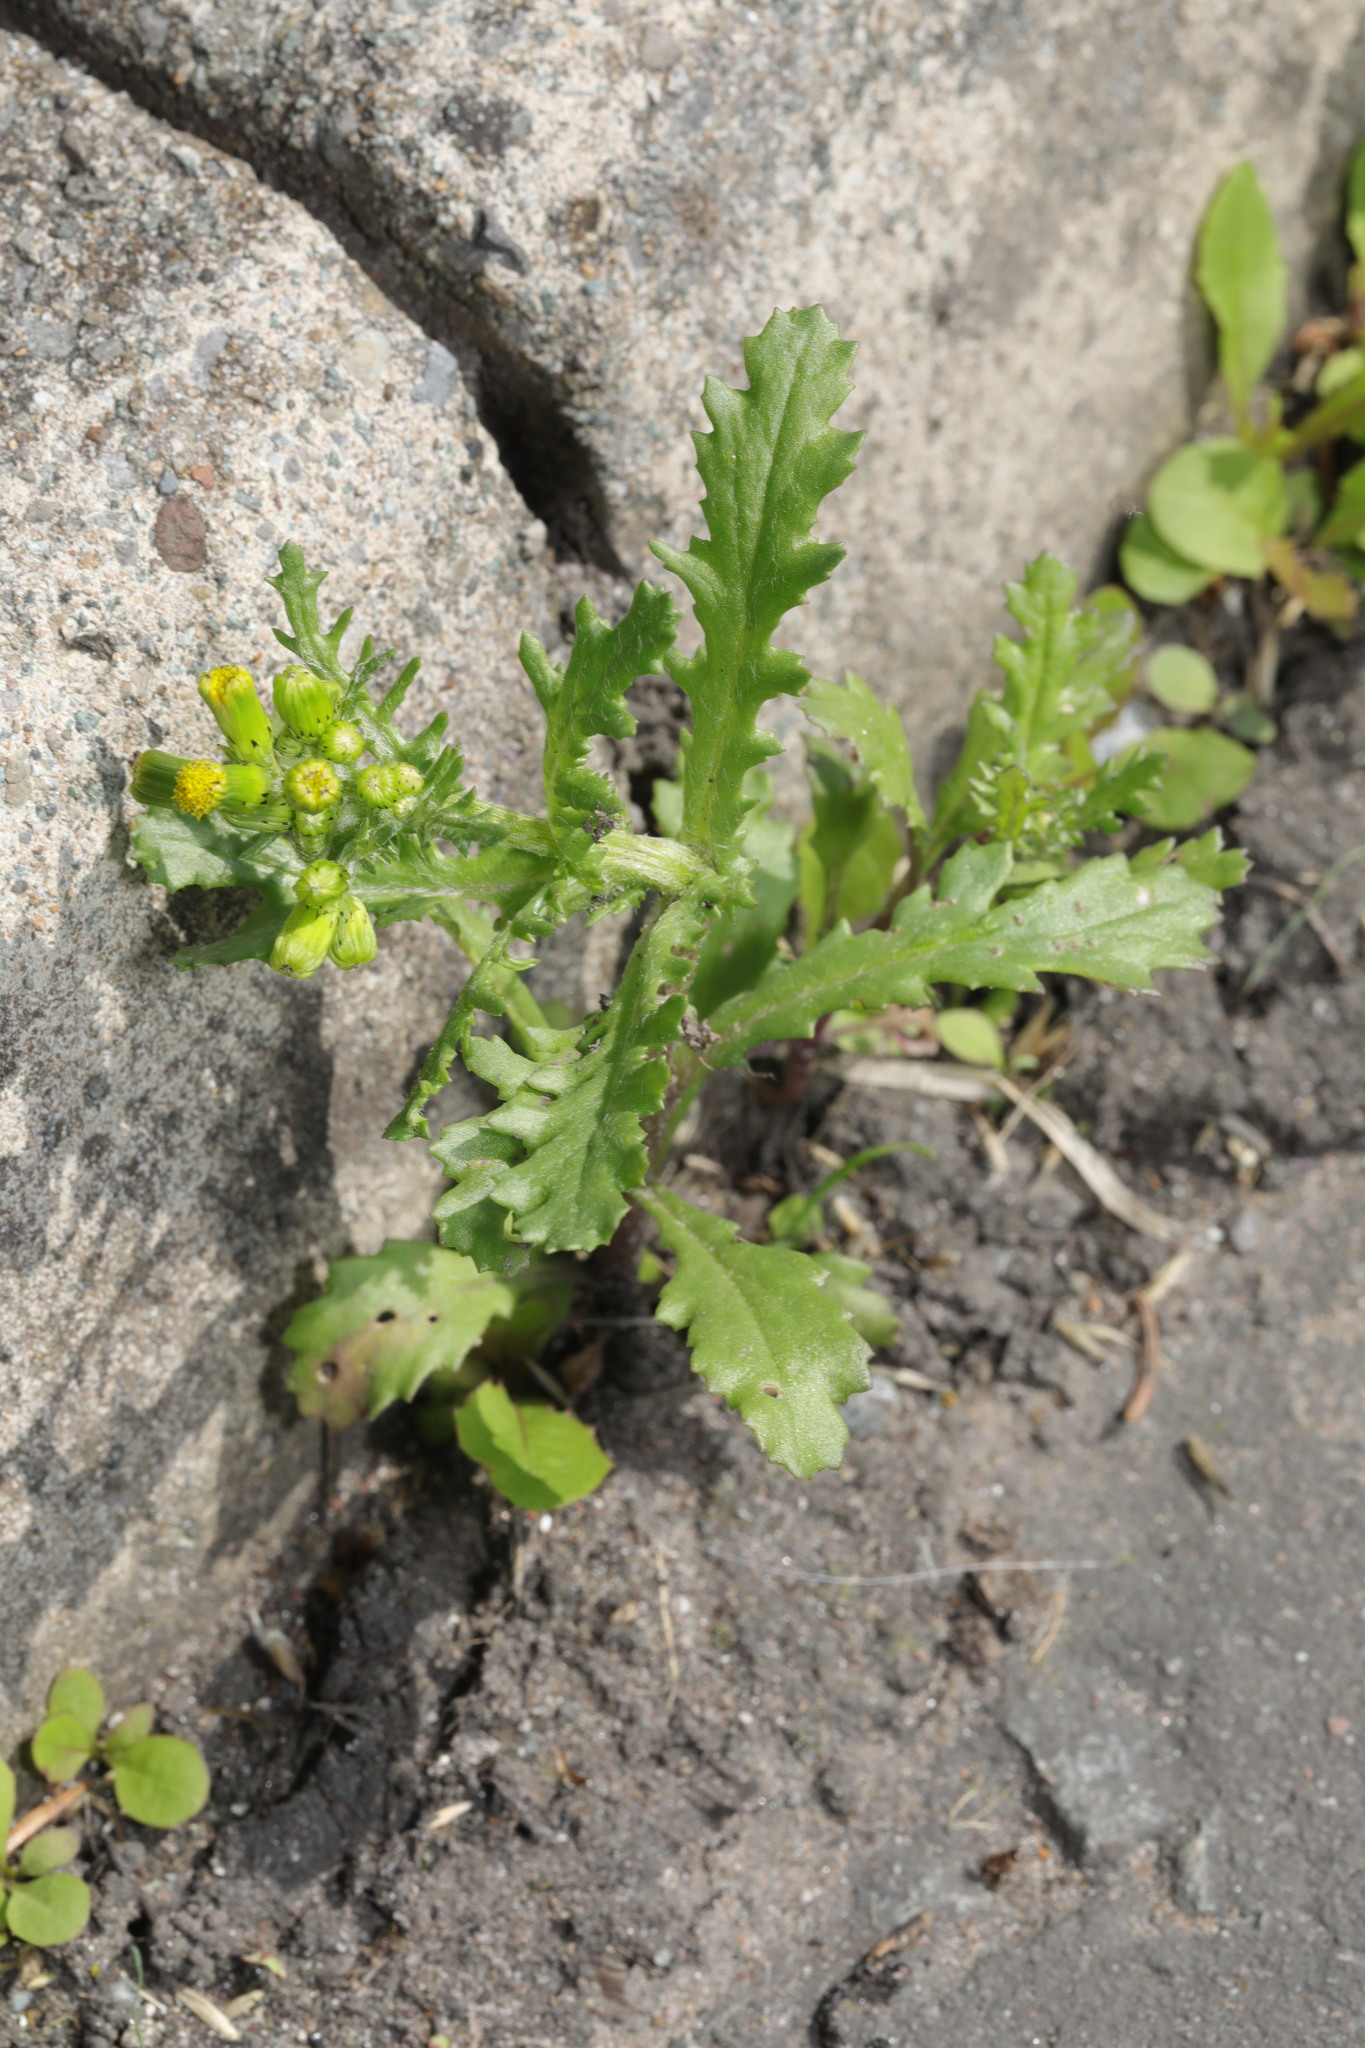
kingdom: Plantae
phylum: Tracheophyta
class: Magnoliopsida
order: Asterales
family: Asteraceae
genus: Senecio
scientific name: Senecio vulgaris
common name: Old-man-in-the-spring
